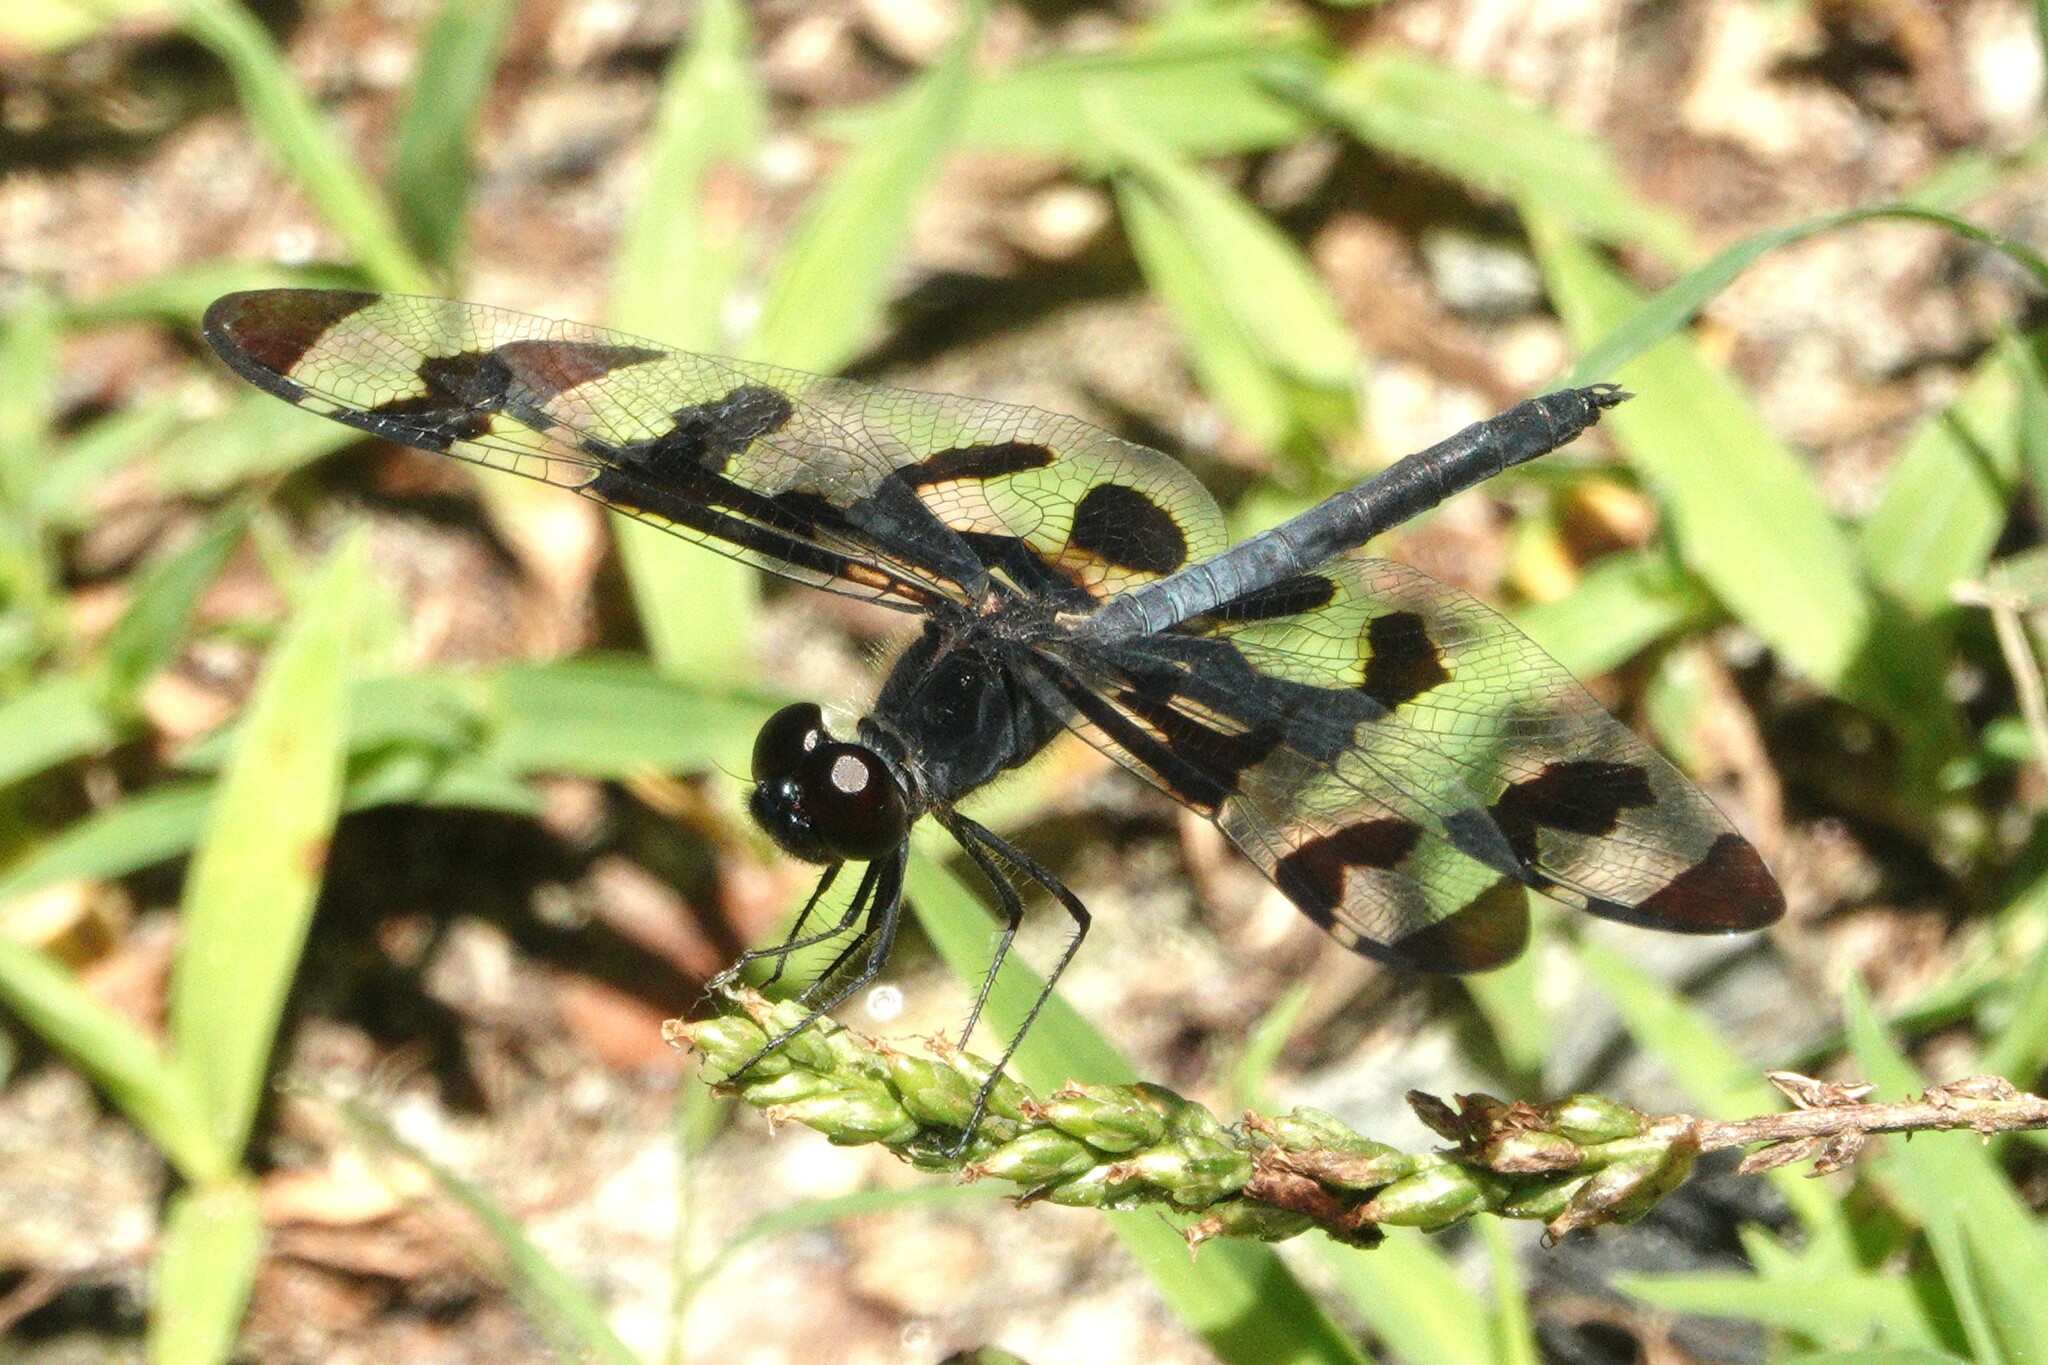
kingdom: Animalia
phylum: Arthropoda
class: Insecta
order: Odonata
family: Libellulidae
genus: Celithemis
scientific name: Celithemis fasciata
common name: Banded pennant
